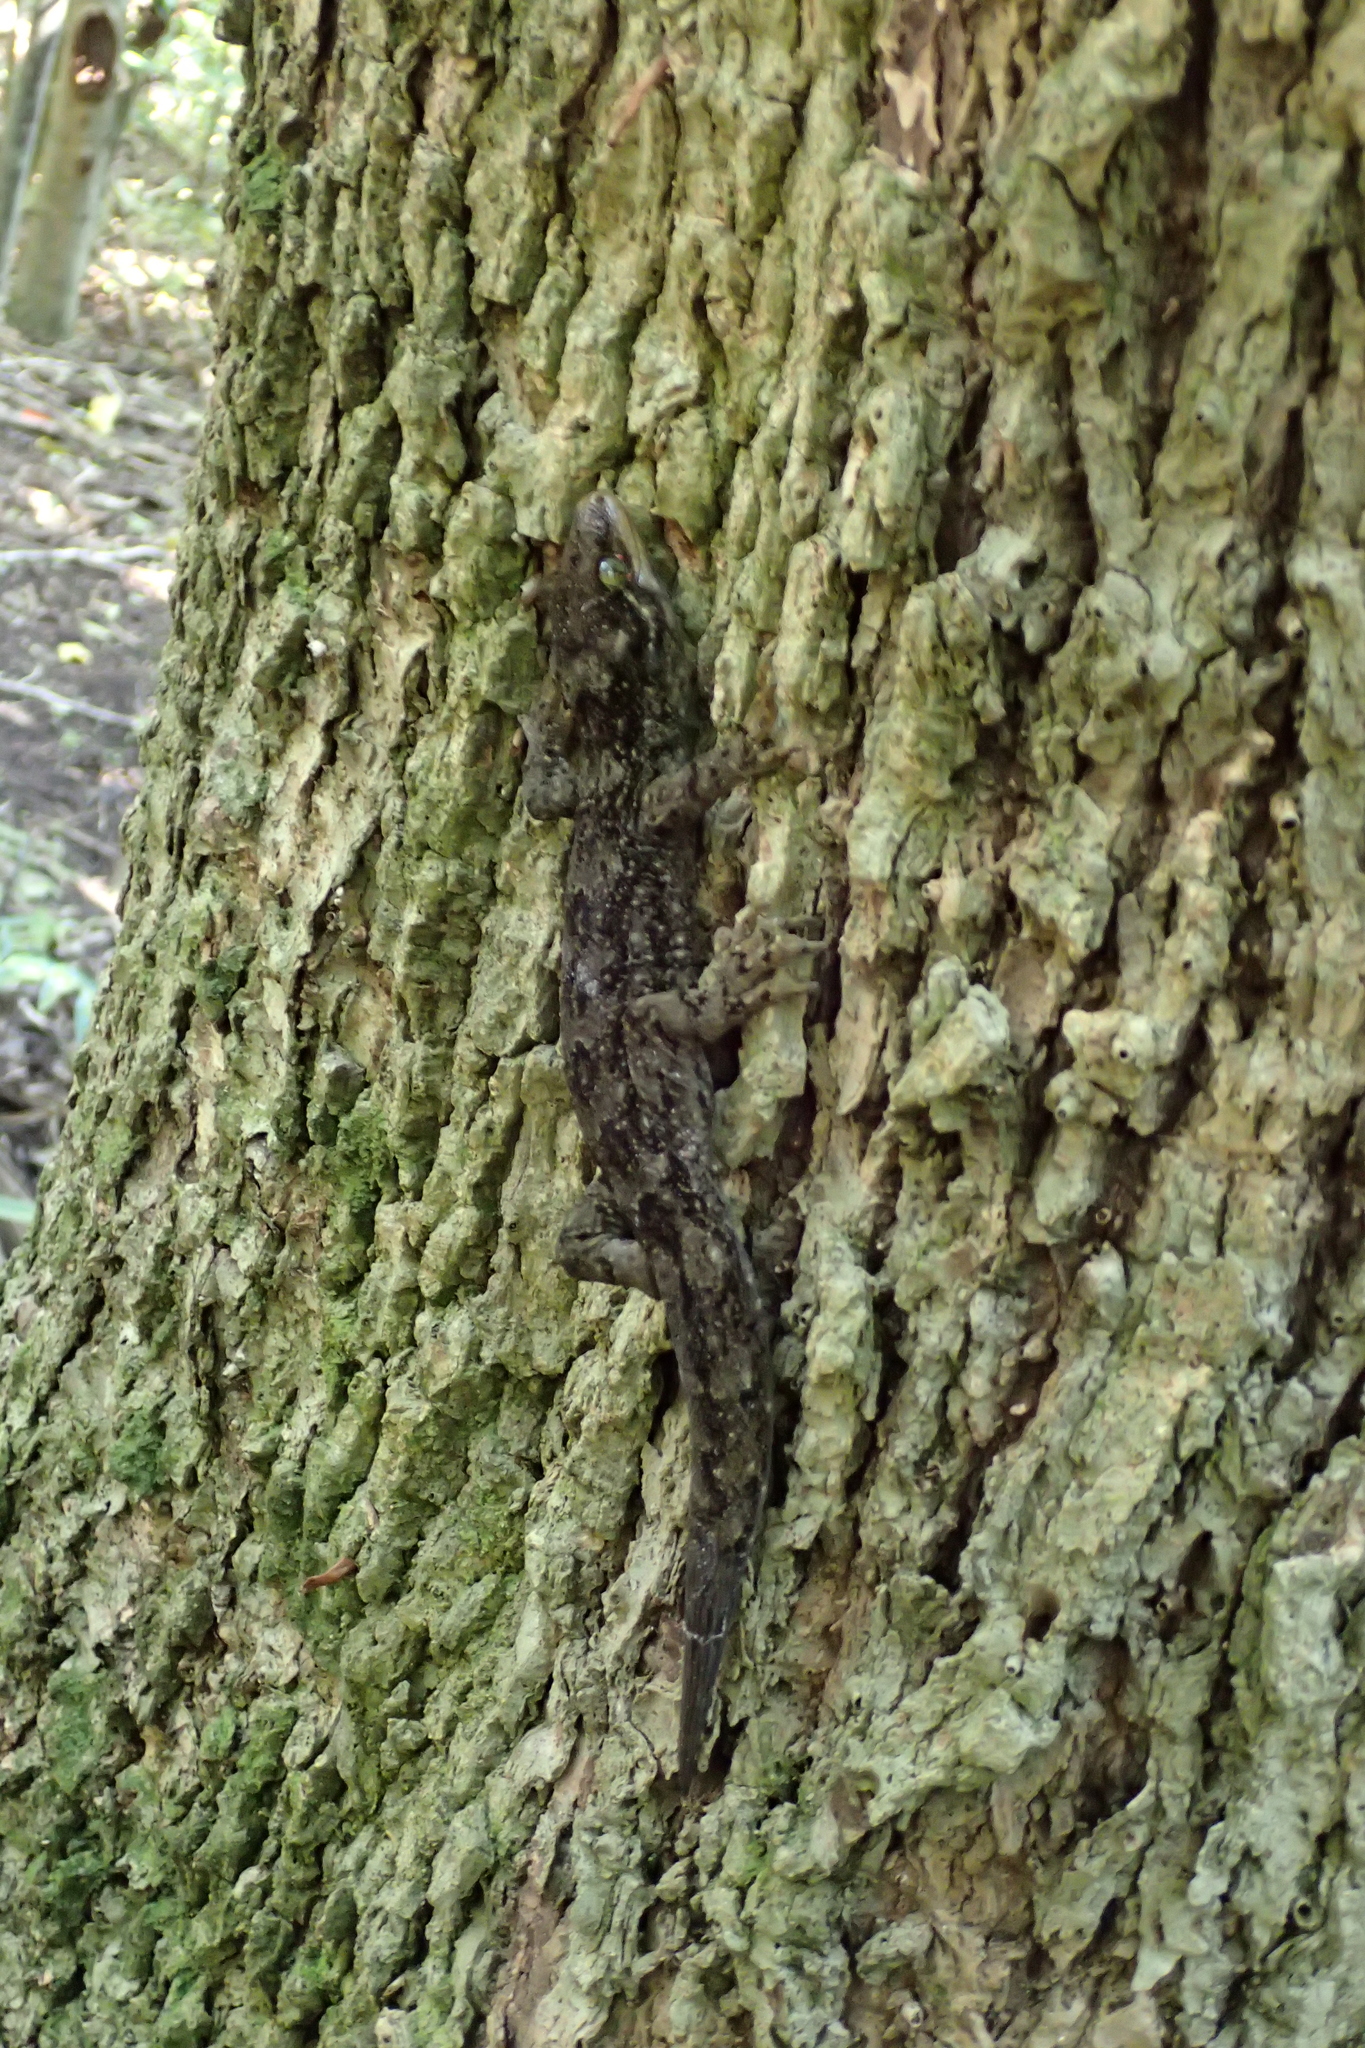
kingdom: Animalia
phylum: Chordata
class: Squamata
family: Diplodactylidae
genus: Hoplodactylus
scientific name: Hoplodactylus duvaucelii
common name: Duvaucel's gecko
